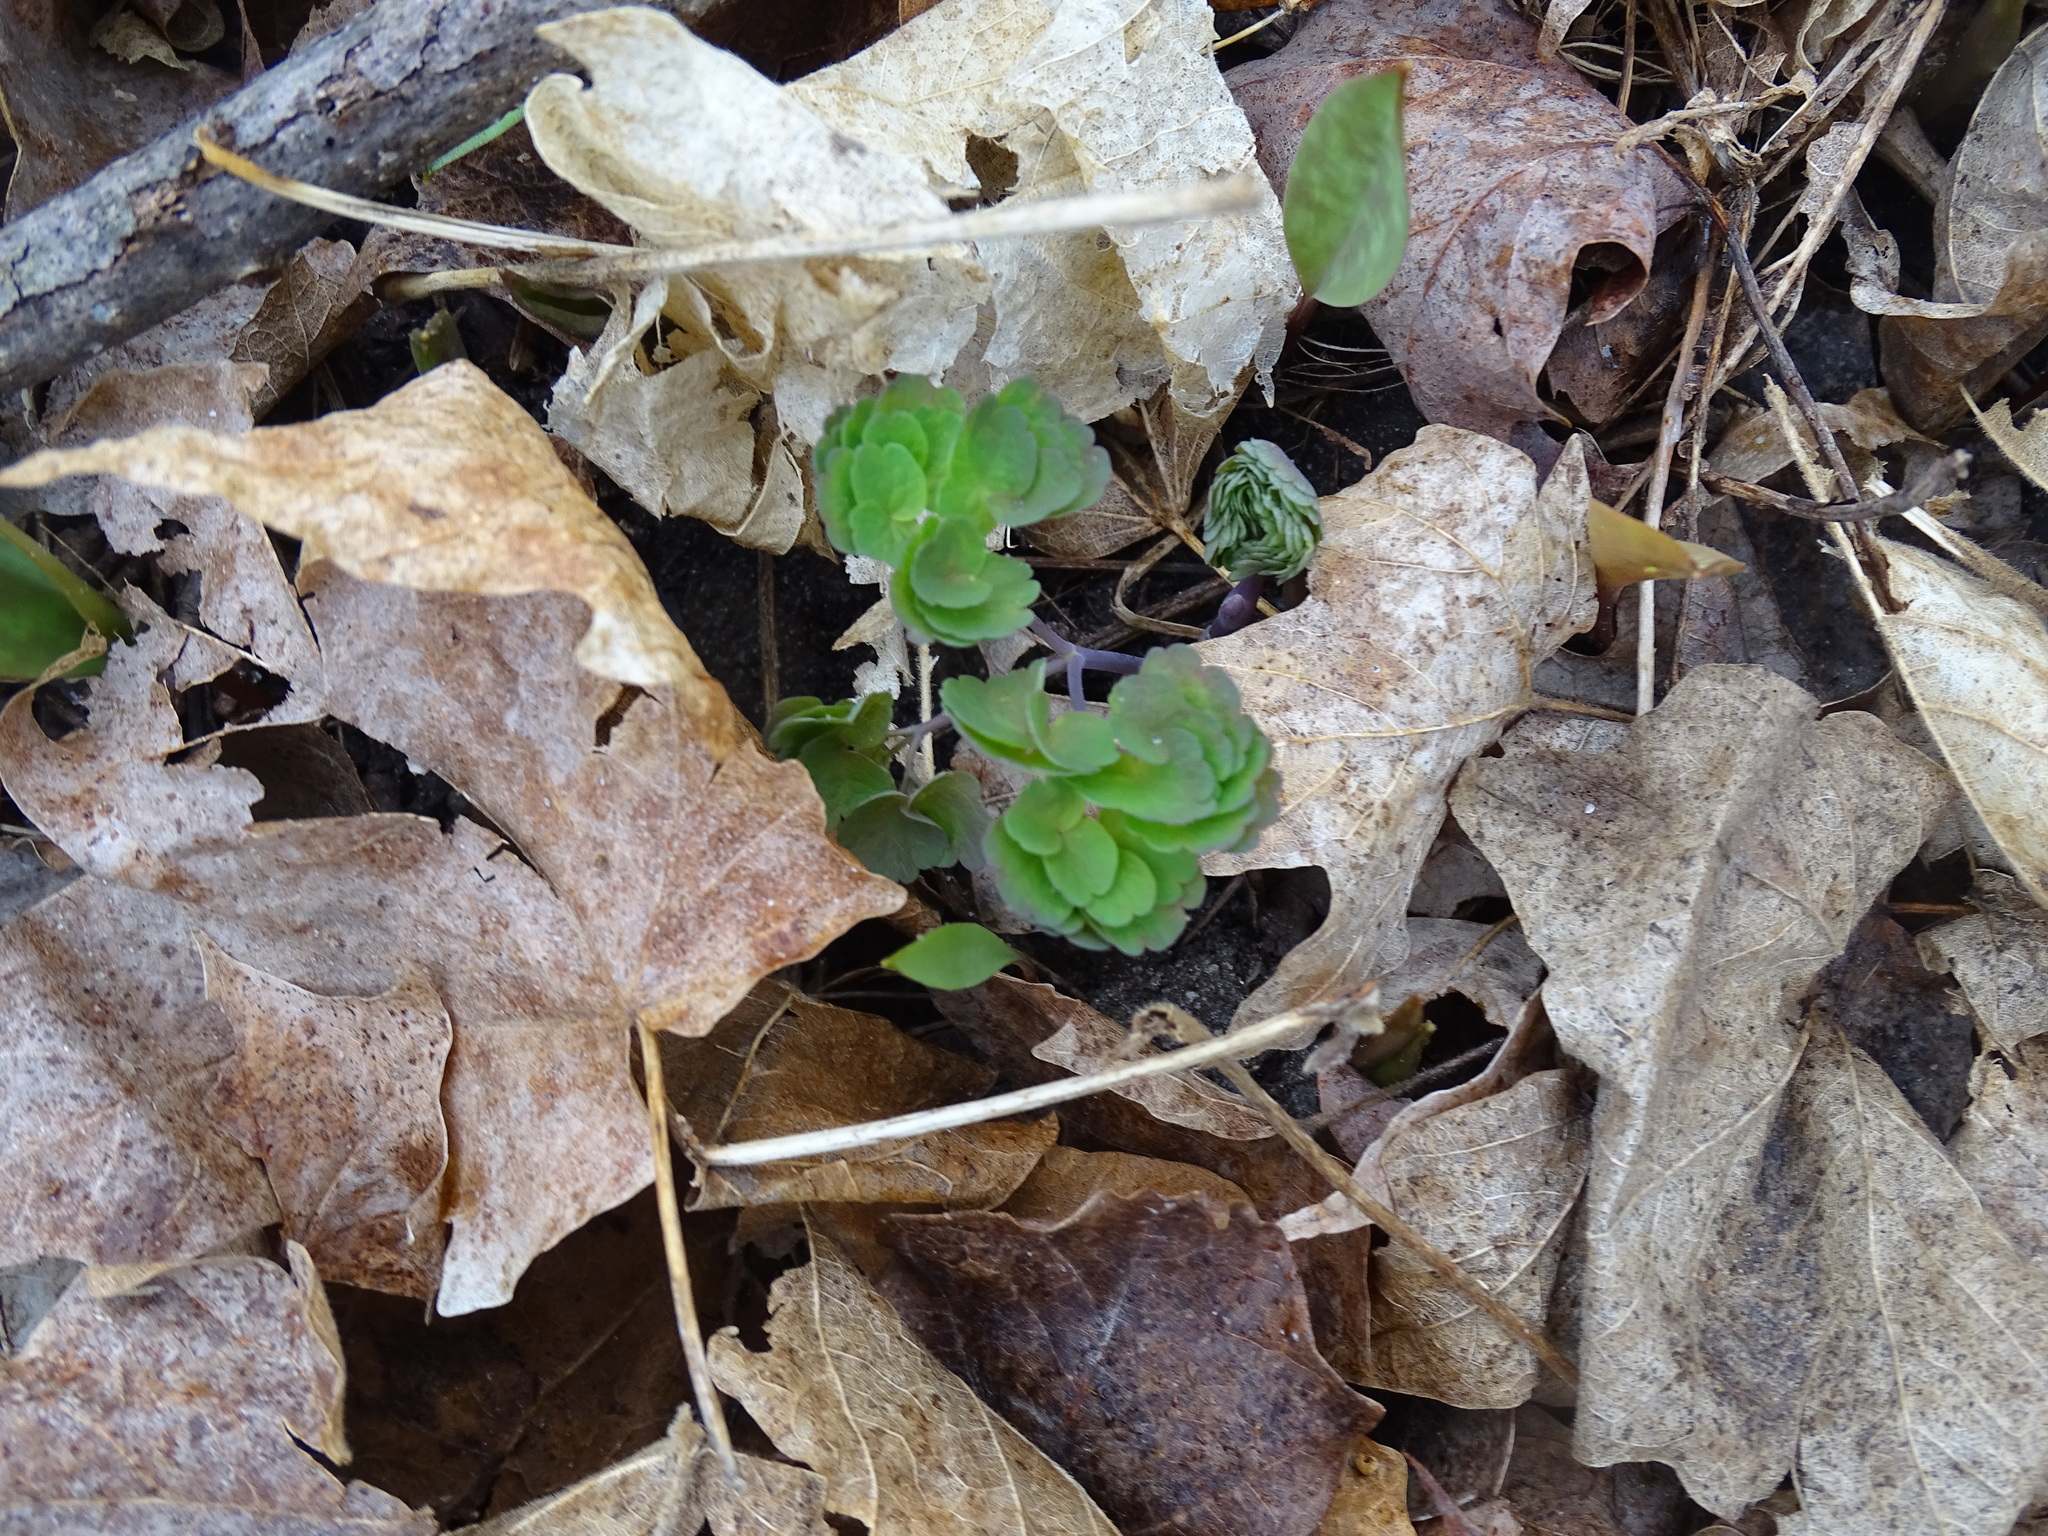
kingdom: Plantae
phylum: Tracheophyta
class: Magnoliopsida
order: Ranunculales
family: Ranunculaceae
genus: Thalictrum
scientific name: Thalictrum dioicum
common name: Early meadow-rue
